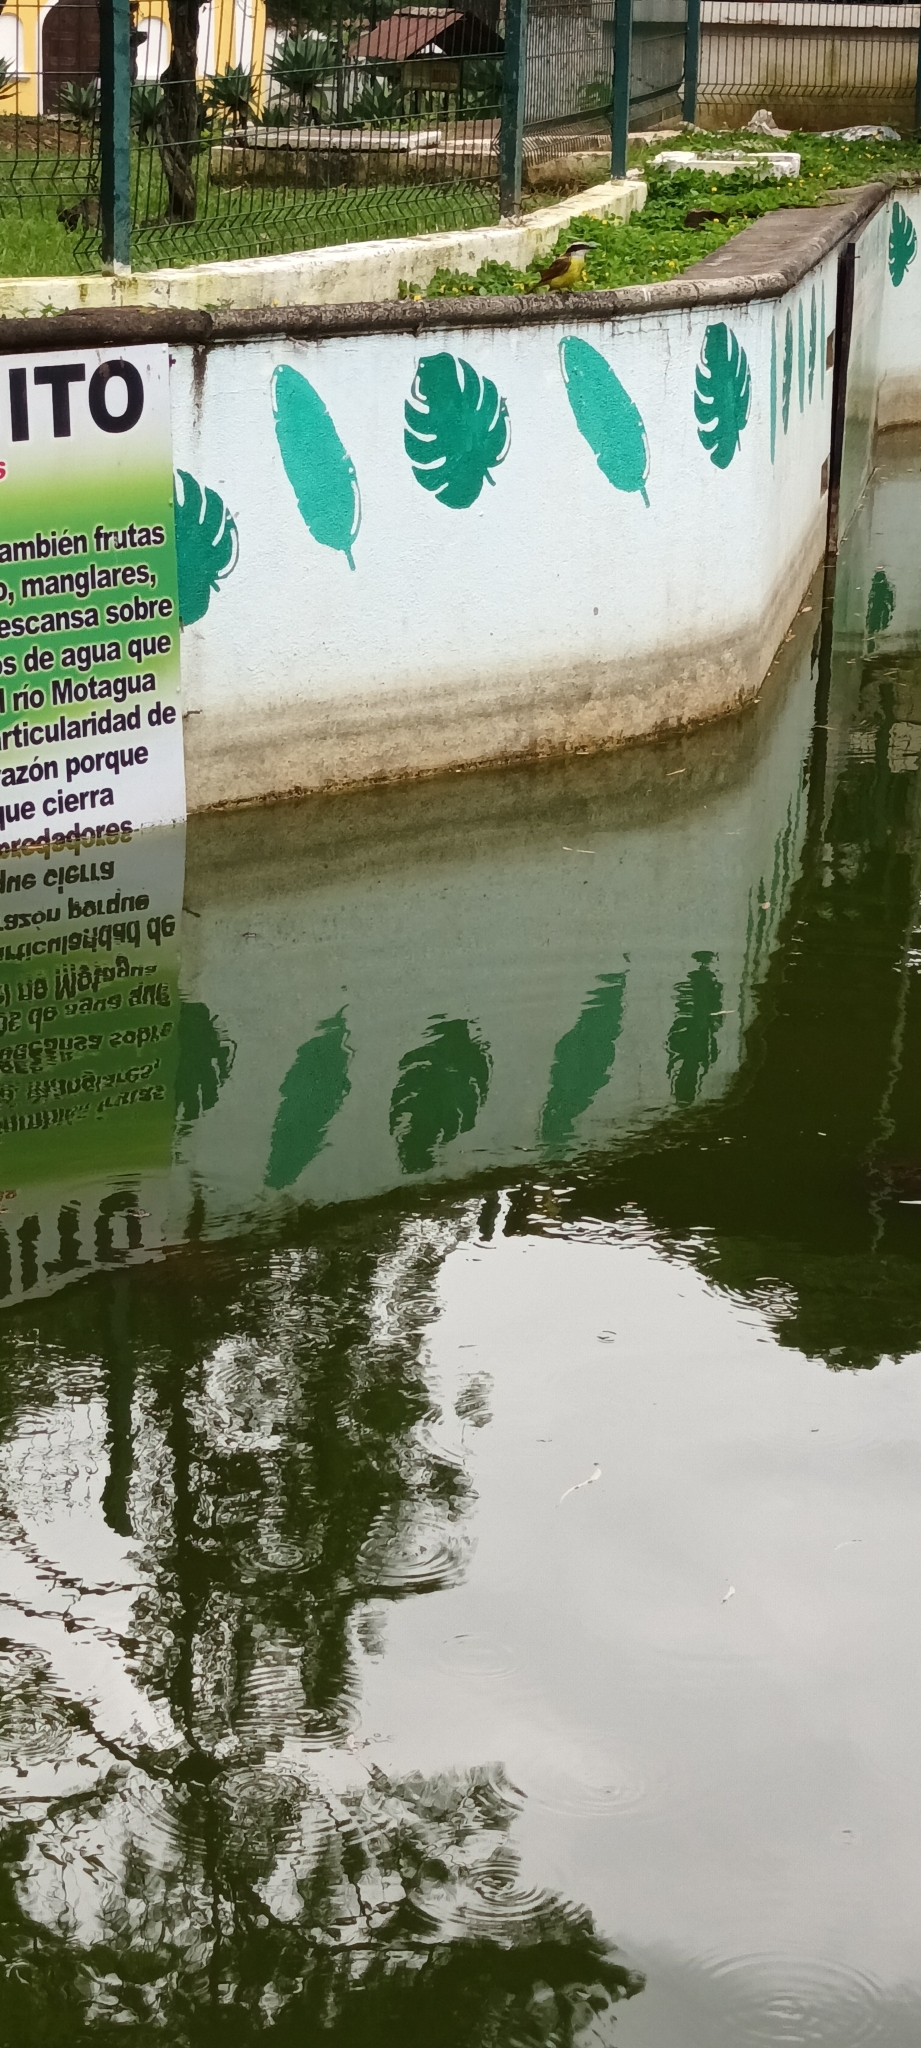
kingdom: Animalia
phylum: Chordata
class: Aves
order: Passeriformes
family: Tyrannidae
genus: Pitangus
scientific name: Pitangus sulphuratus
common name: Great kiskadee
